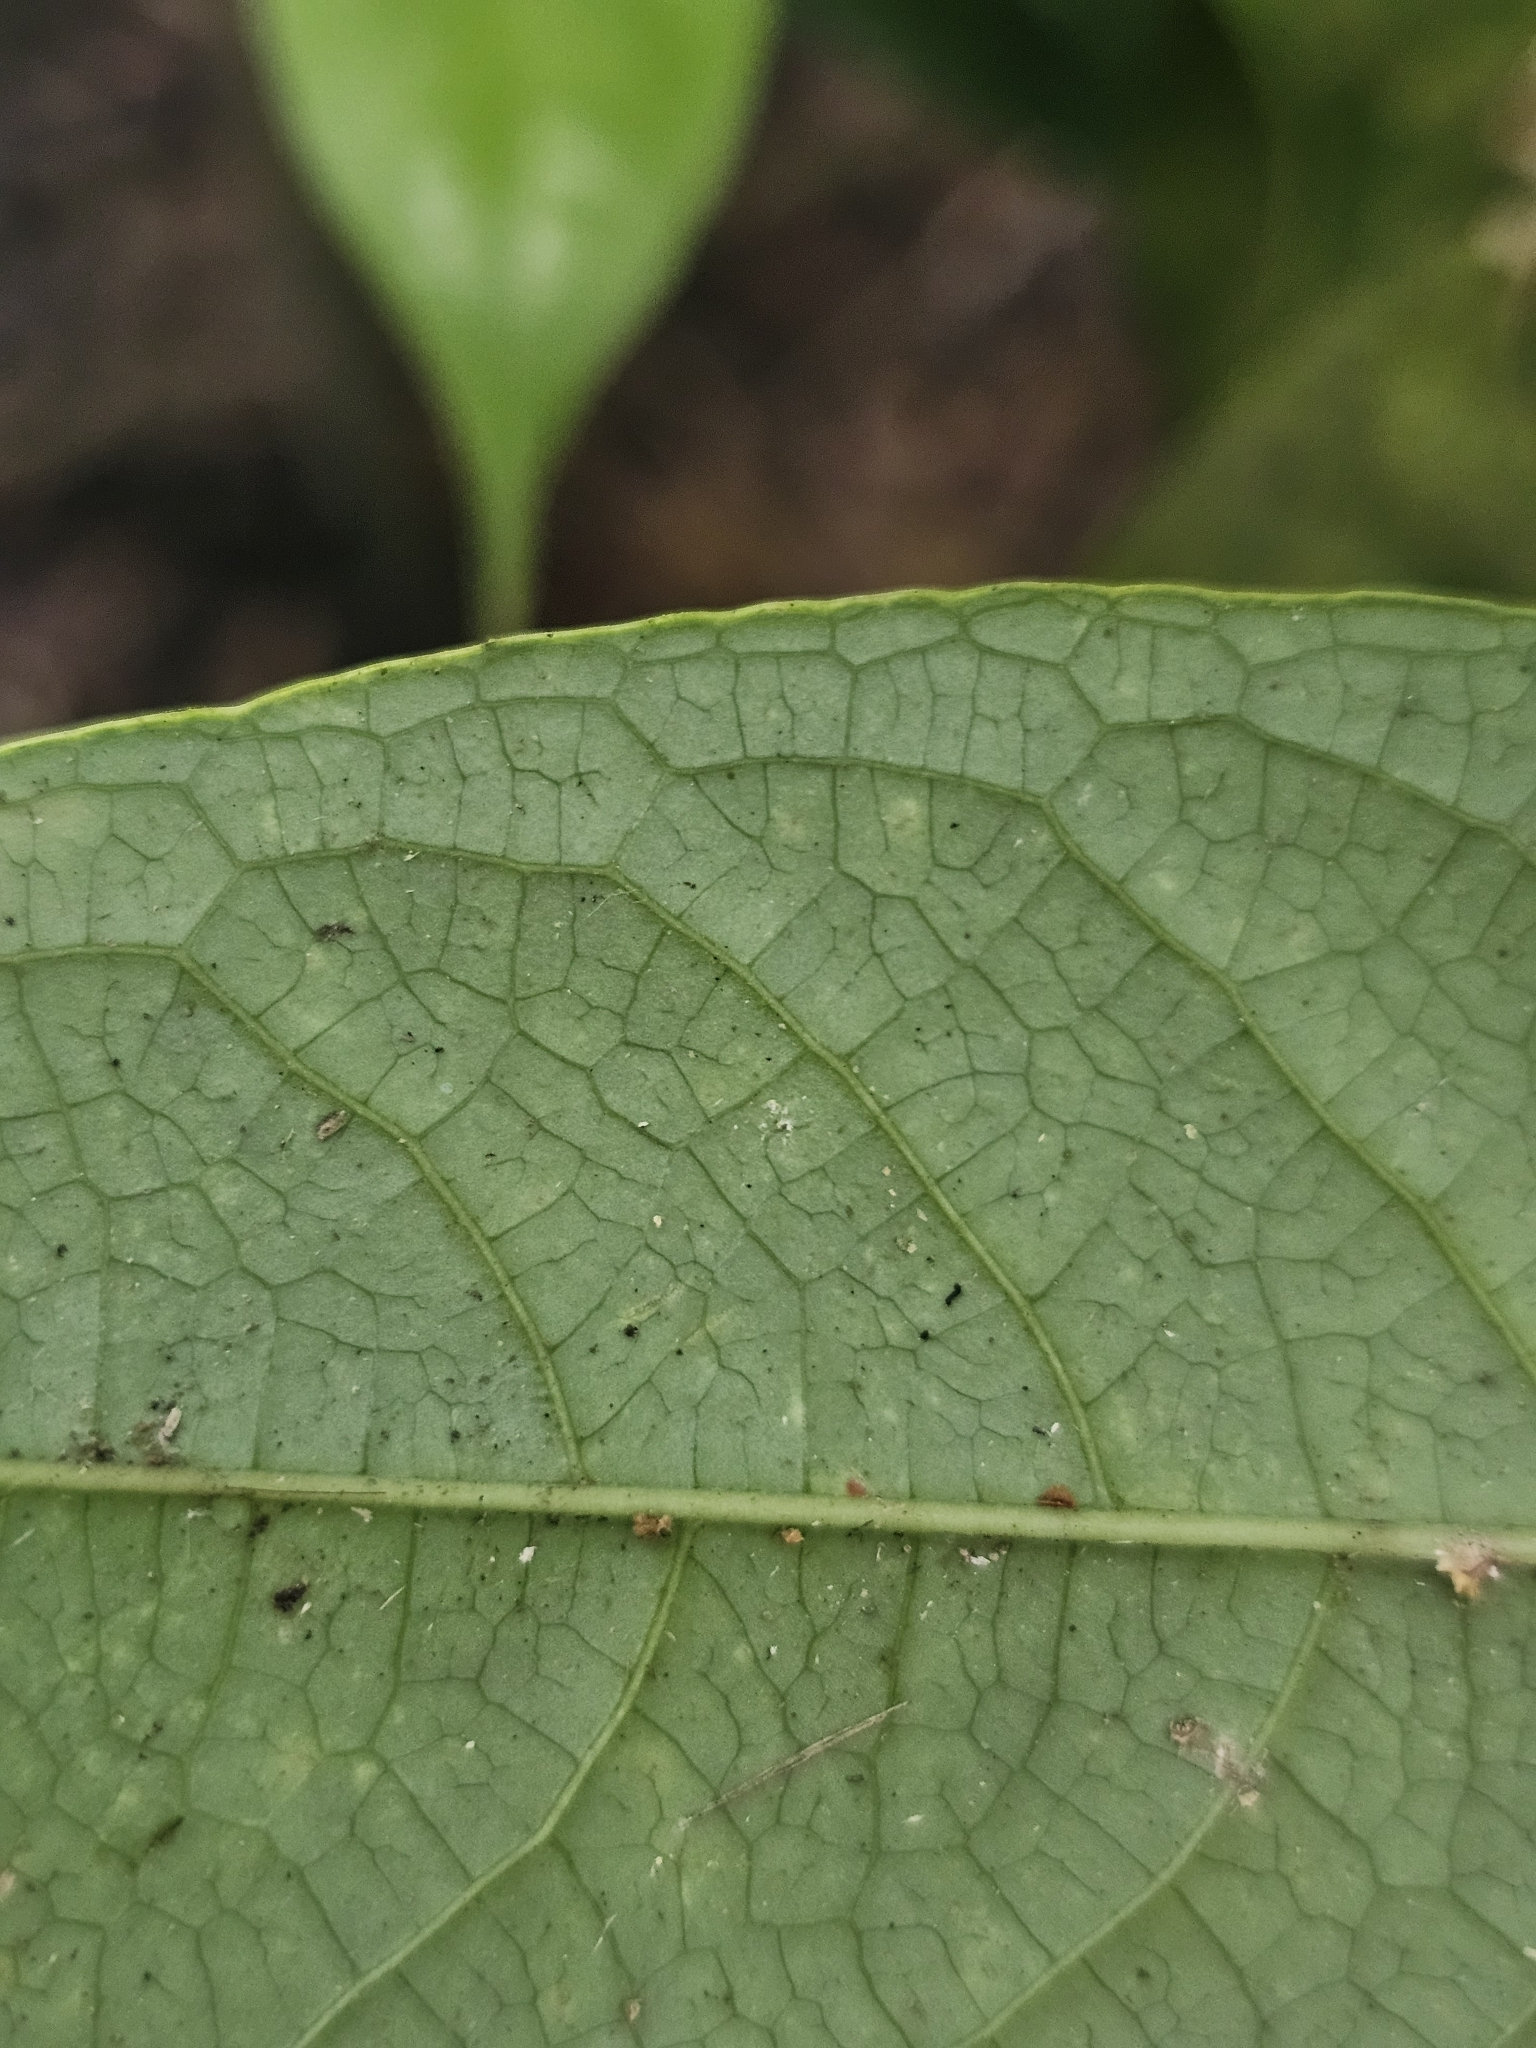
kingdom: Plantae
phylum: Tracheophyta
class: Magnoliopsida
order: Gentianales
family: Rubiaceae
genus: Urophyllum
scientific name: Urophyllum griffithianum
